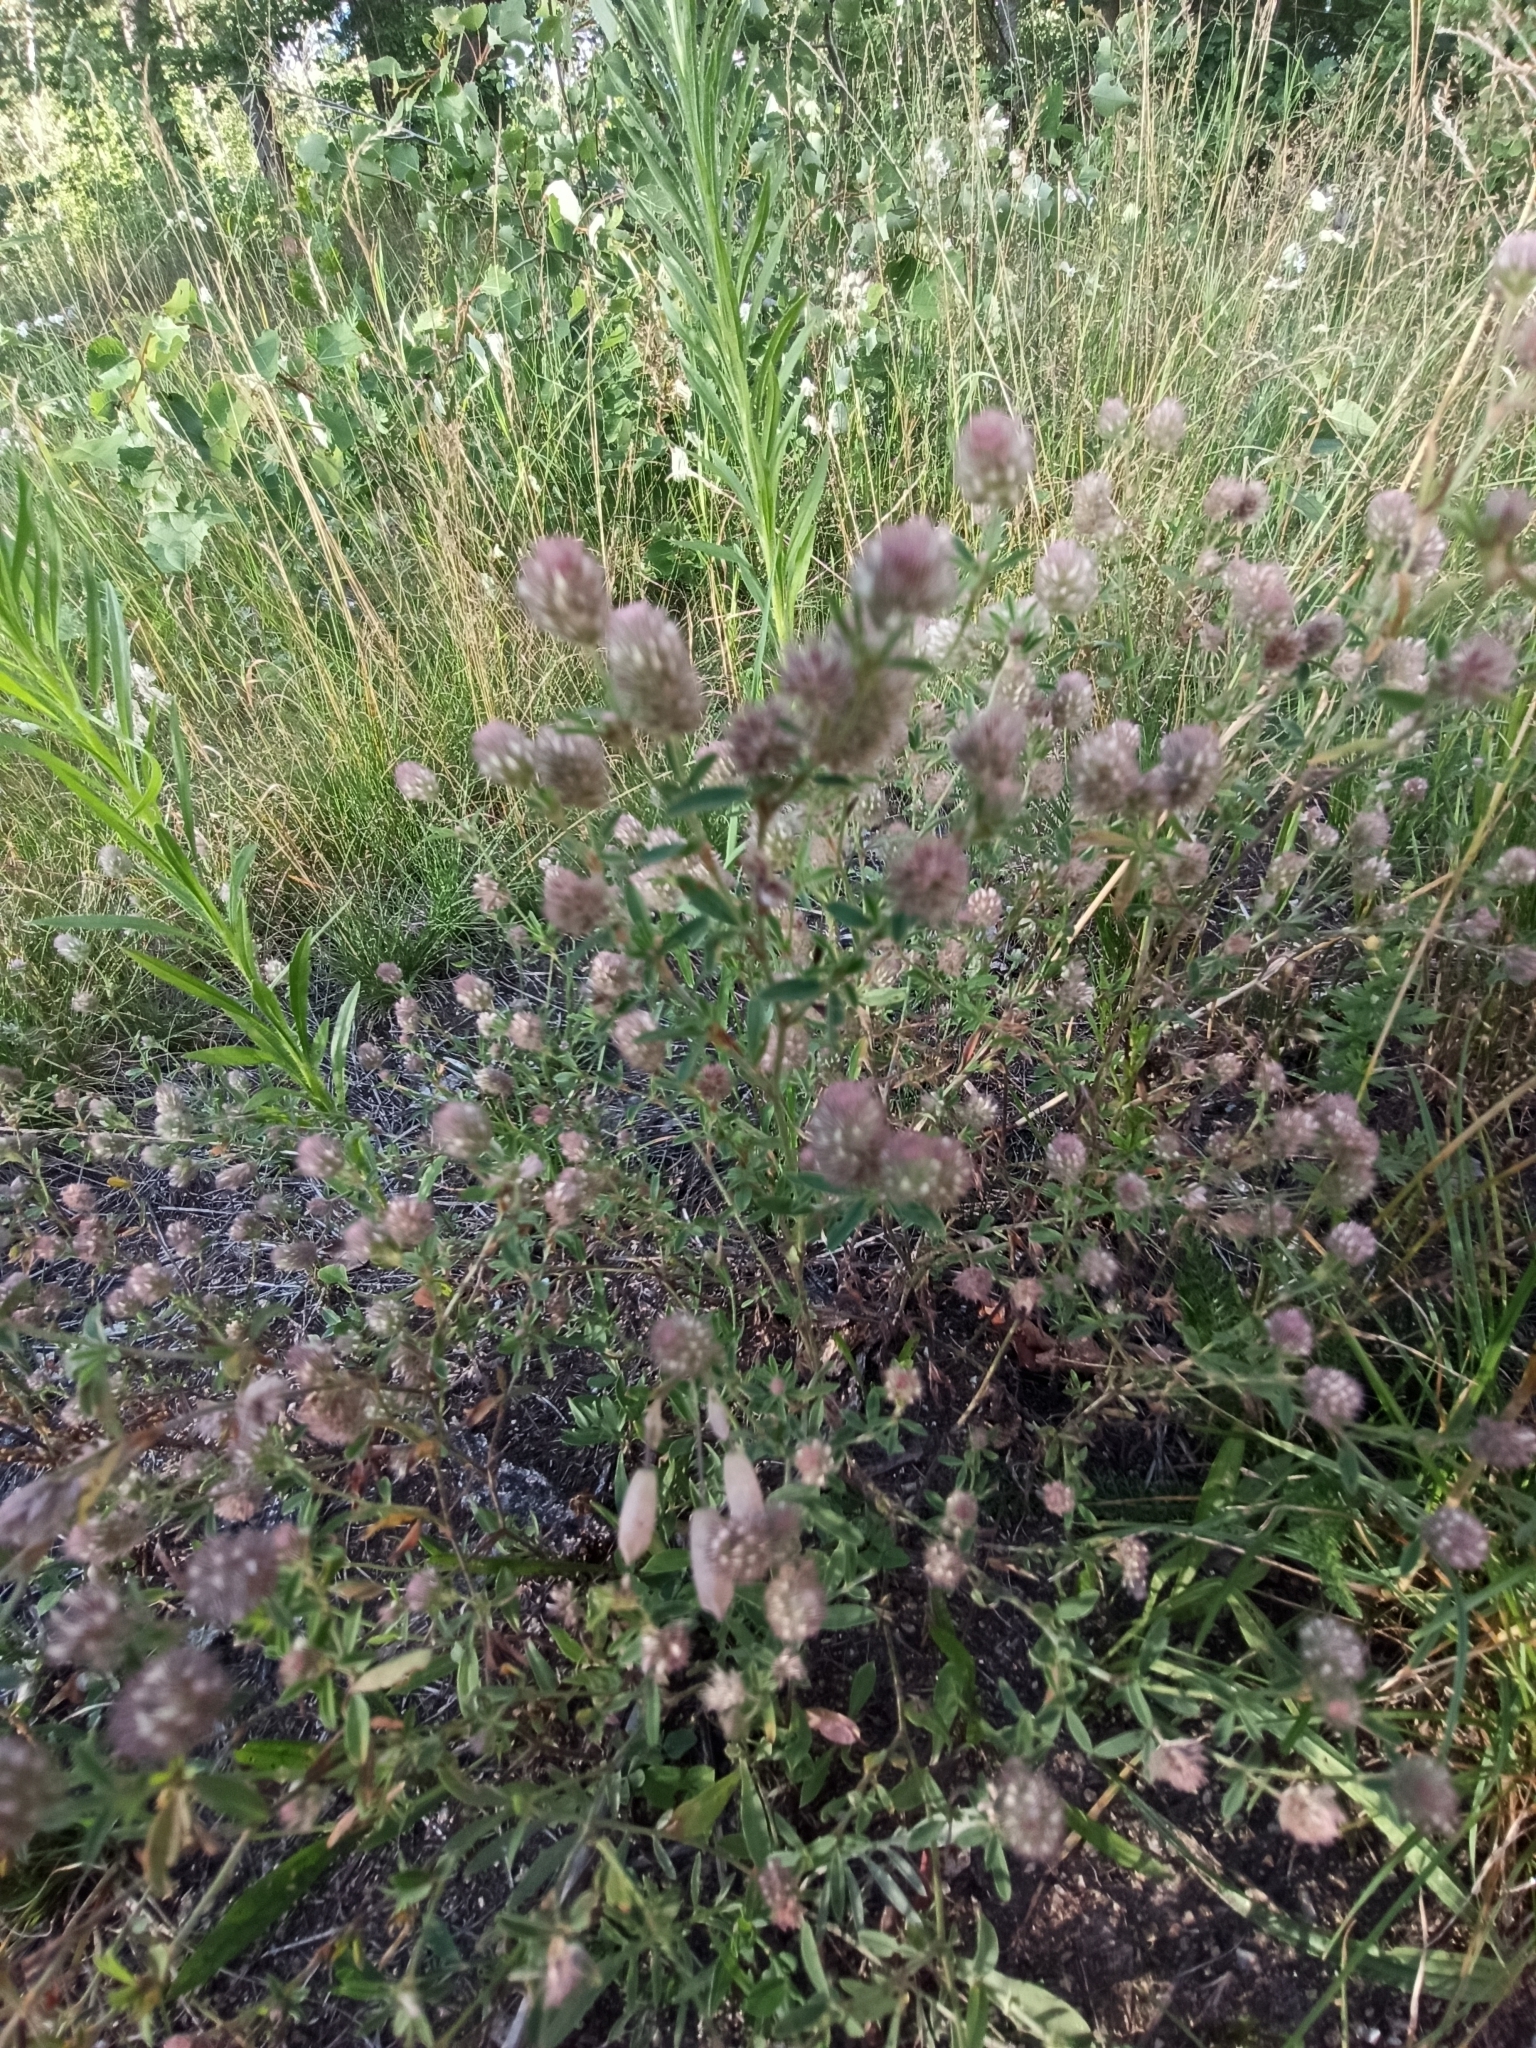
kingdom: Plantae
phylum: Tracheophyta
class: Magnoliopsida
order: Fabales
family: Fabaceae
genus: Trifolium
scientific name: Trifolium arvense
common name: Hare's-foot clover
